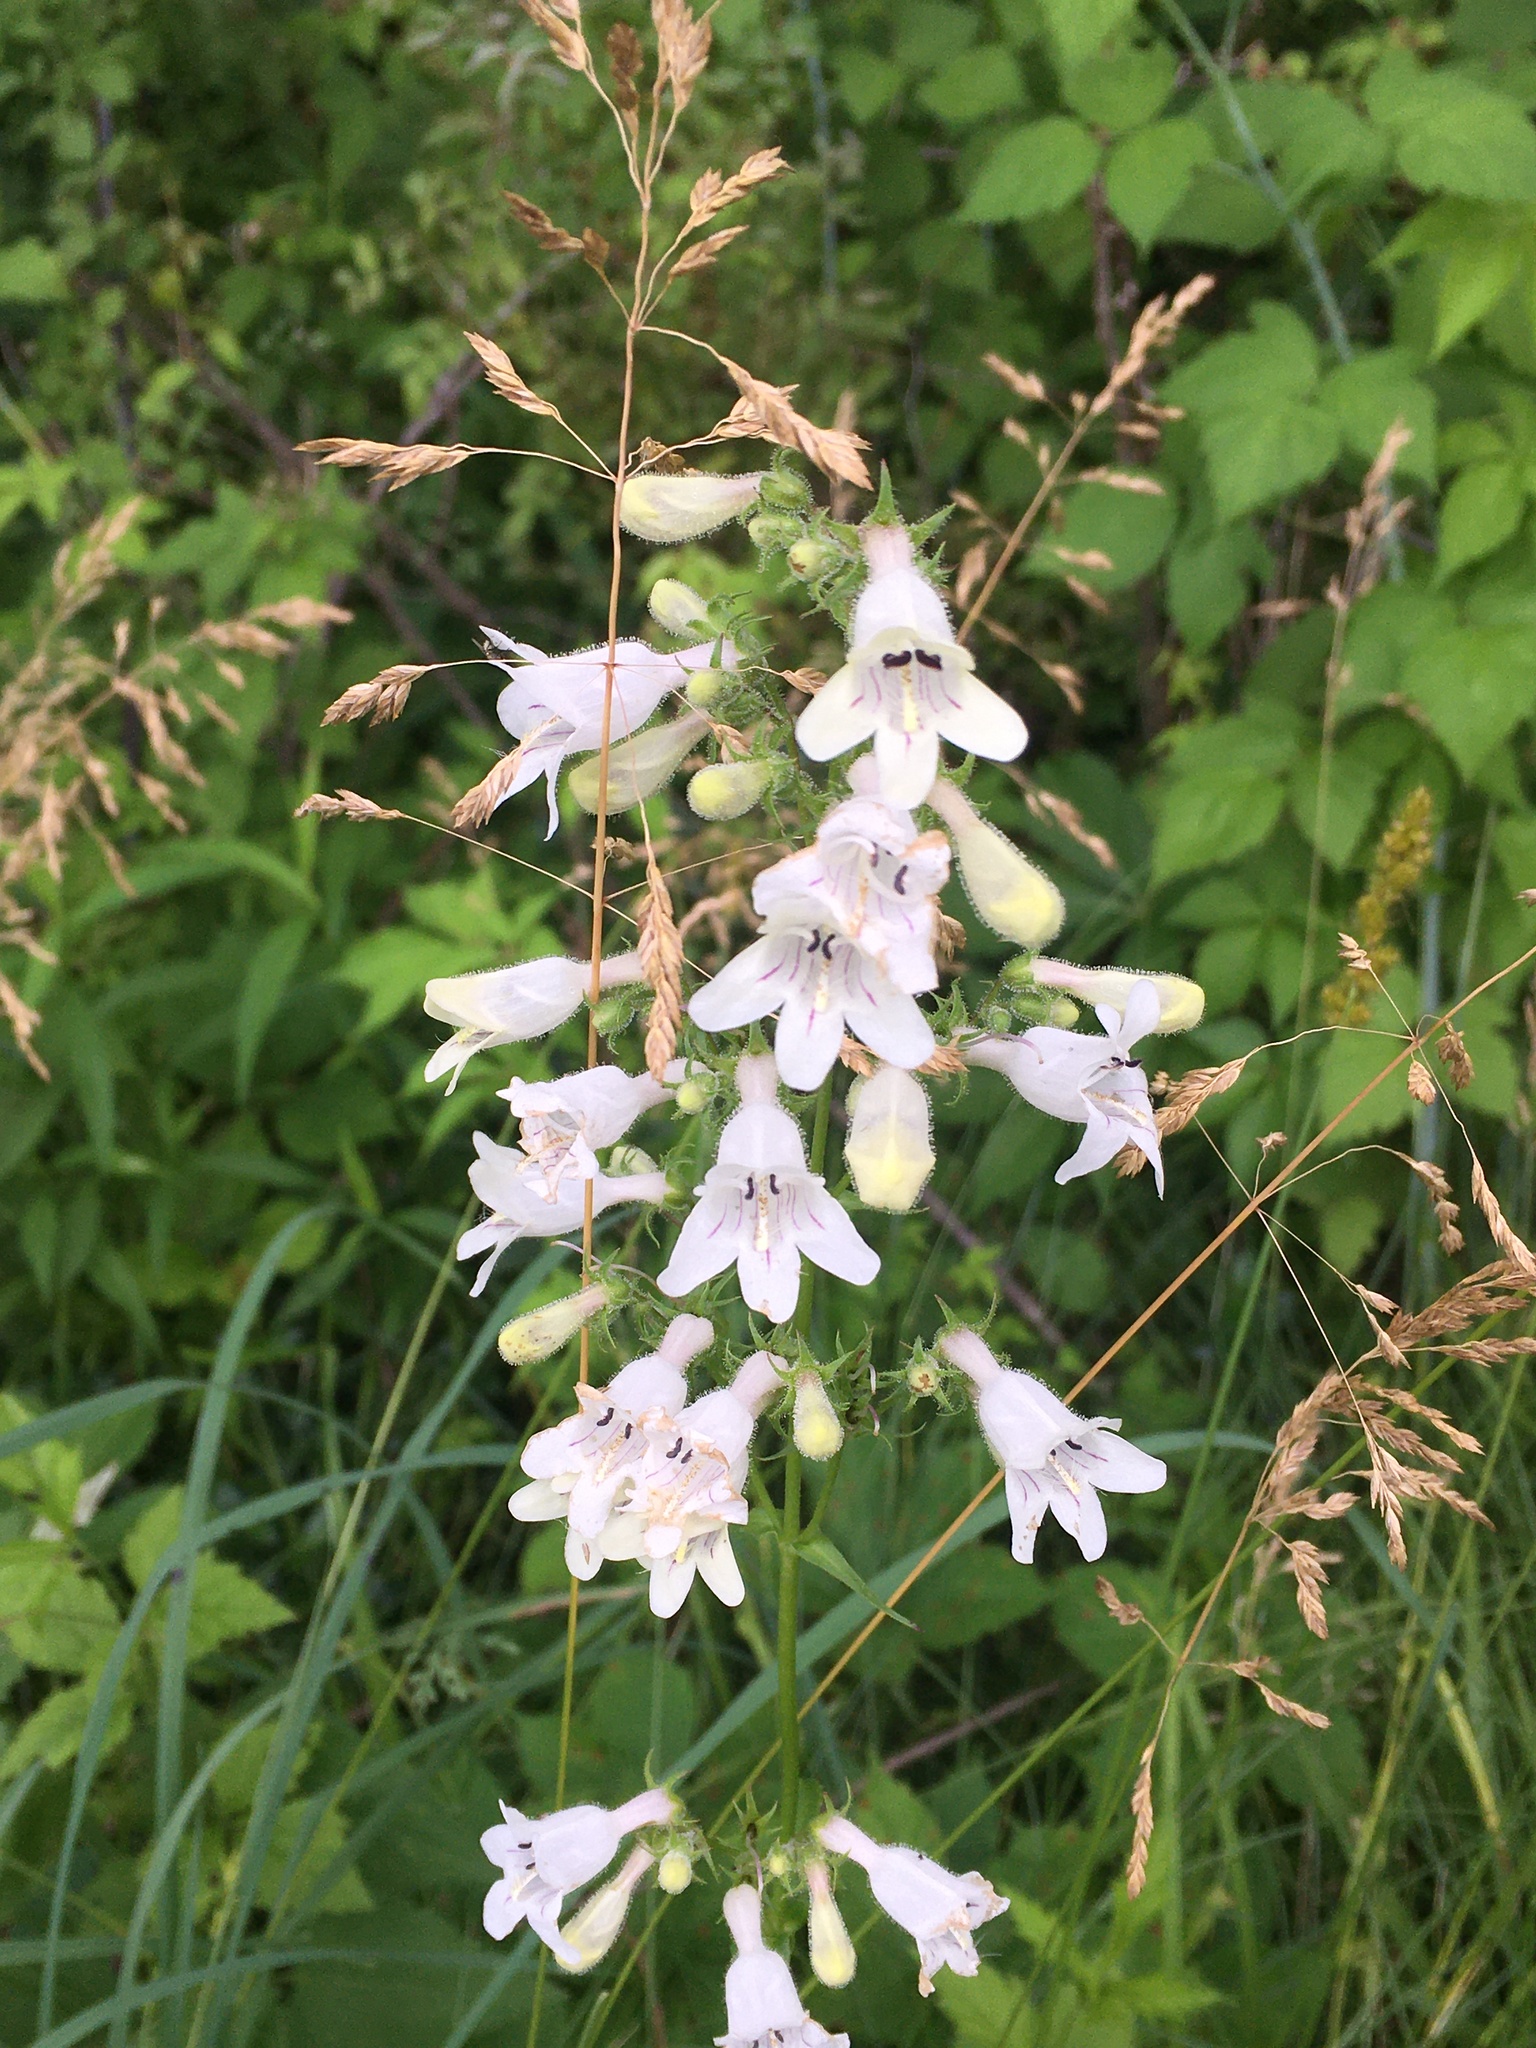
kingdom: Plantae
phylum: Tracheophyta
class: Magnoliopsida
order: Lamiales
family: Plantaginaceae
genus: Penstemon
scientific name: Penstemon digitalis
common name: Foxglove beardtongue
